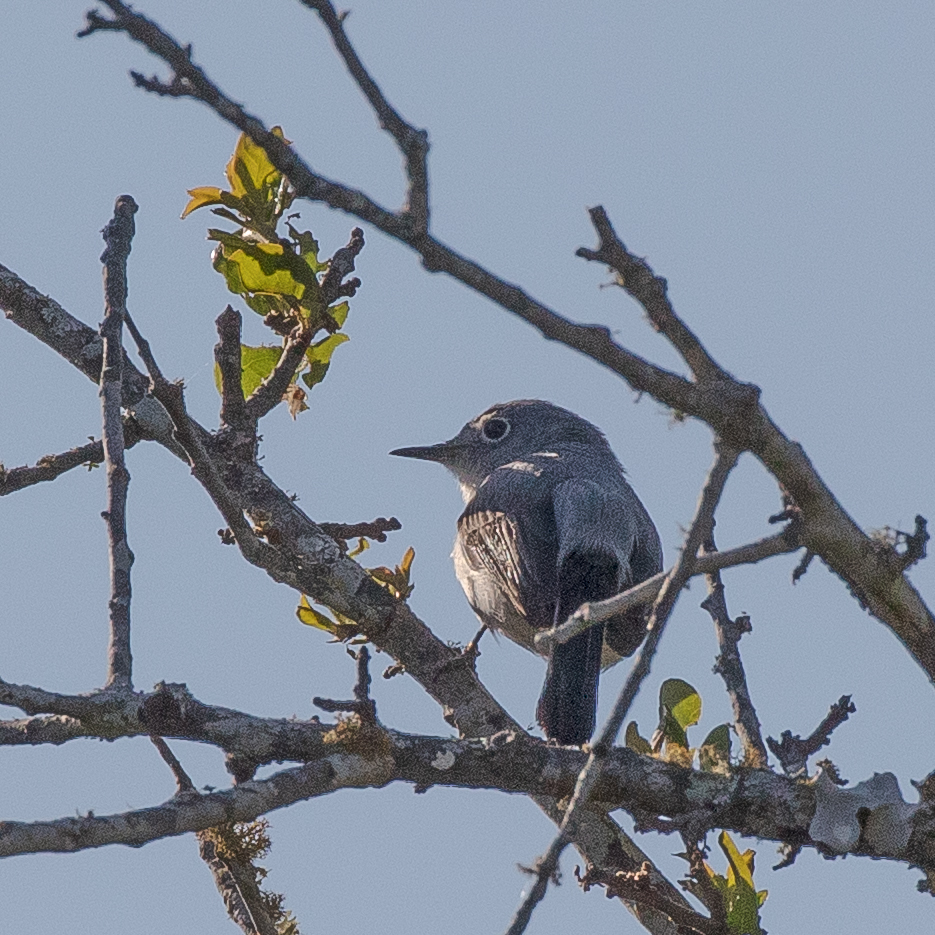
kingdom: Animalia
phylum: Chordata
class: Aves
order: Passeriformes
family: Polioptilidae
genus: Polioptila
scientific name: Polioptila caerulea
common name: Blue-gray gnatcatcher
